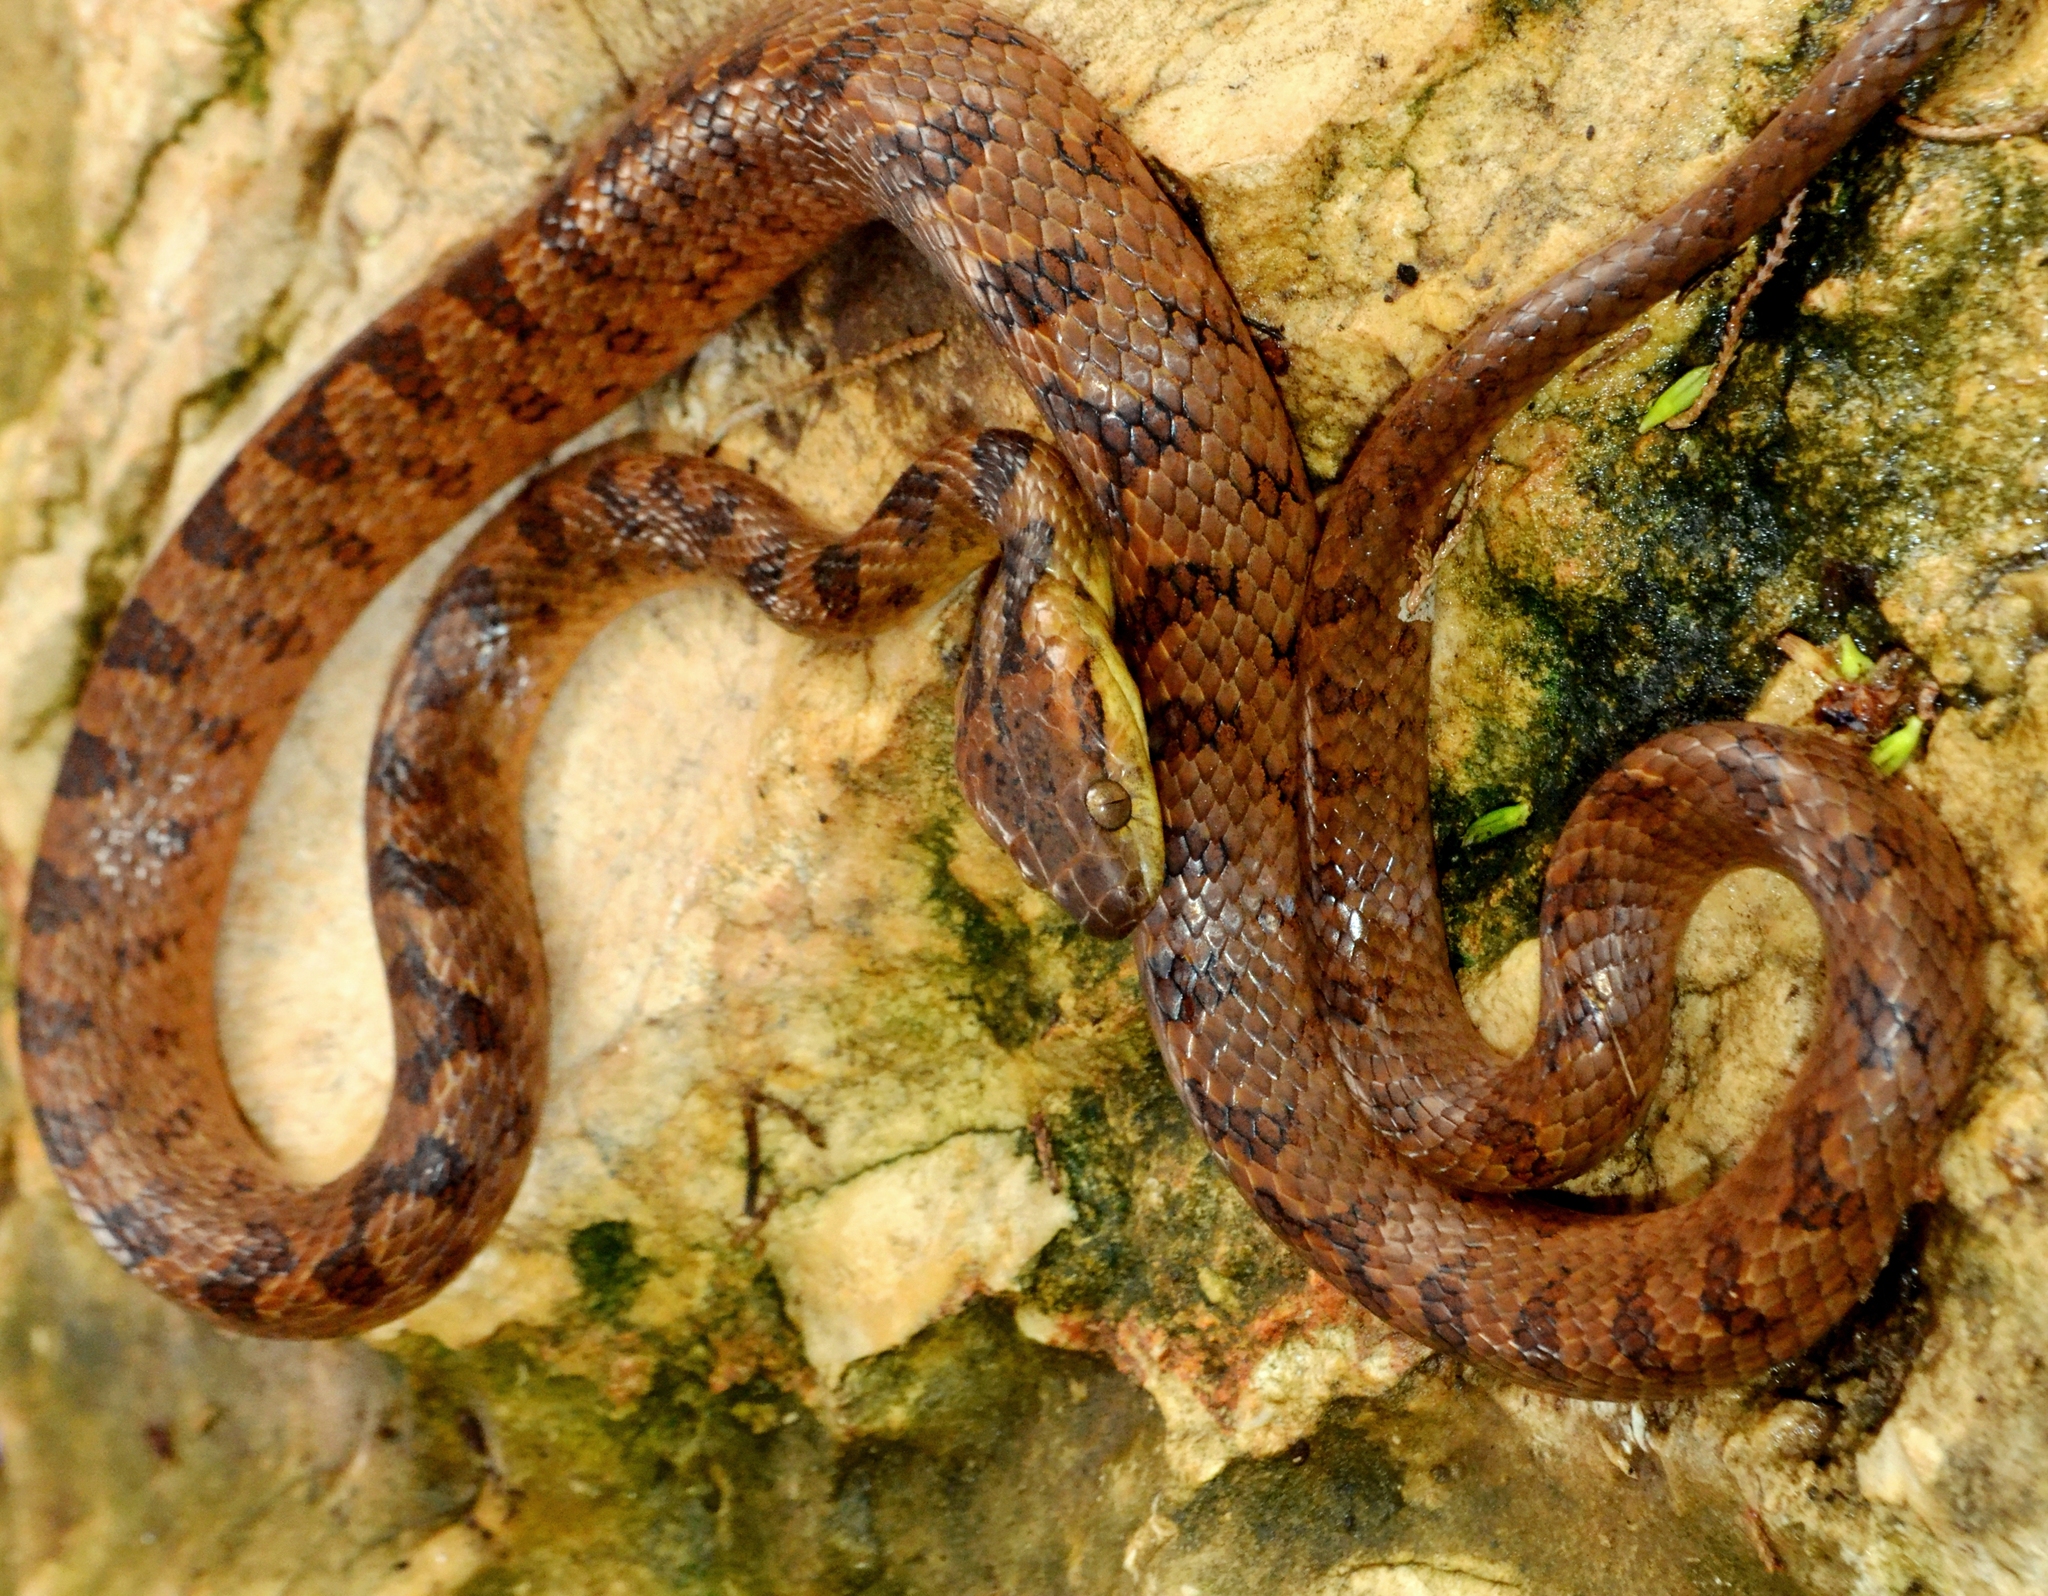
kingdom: Animalia
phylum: Chordata
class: Squamata
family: Colubridae
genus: Leptodeira
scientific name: Leptodeira septentrionalis
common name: Northern cat-eyed snake
